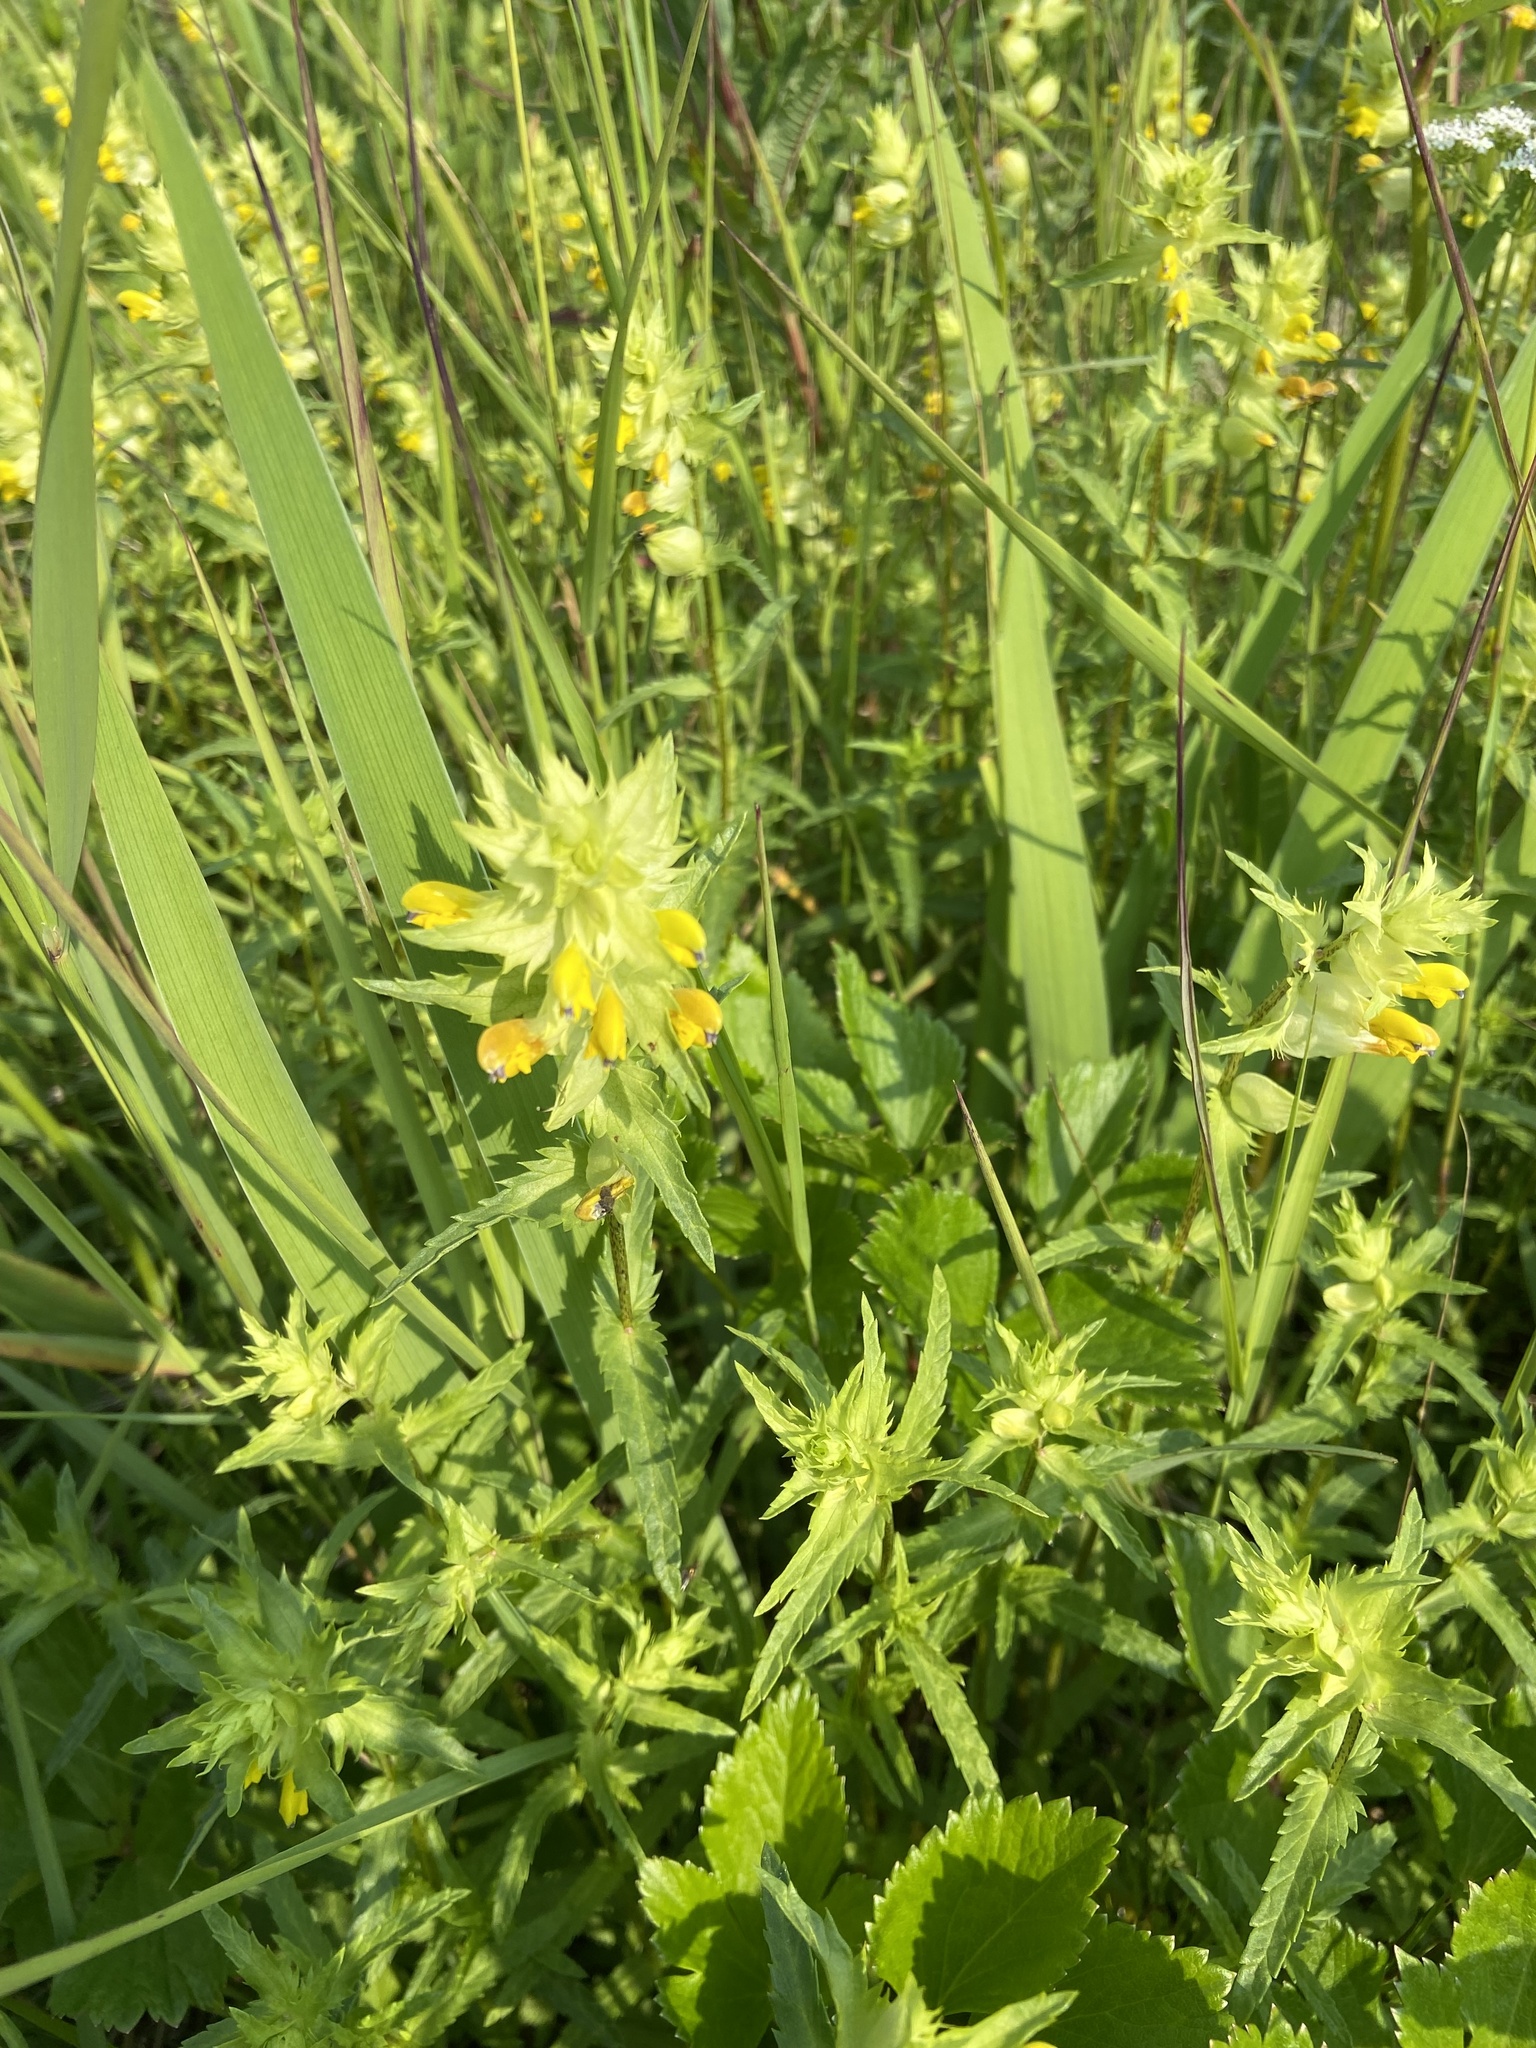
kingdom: Plantae
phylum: Tracheophyta
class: Magnoliopsida
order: Lamiales
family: Orobanchaceae
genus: Rhinanthus
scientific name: Rhinanthus serotinus
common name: Late-flowering yellow rattle
